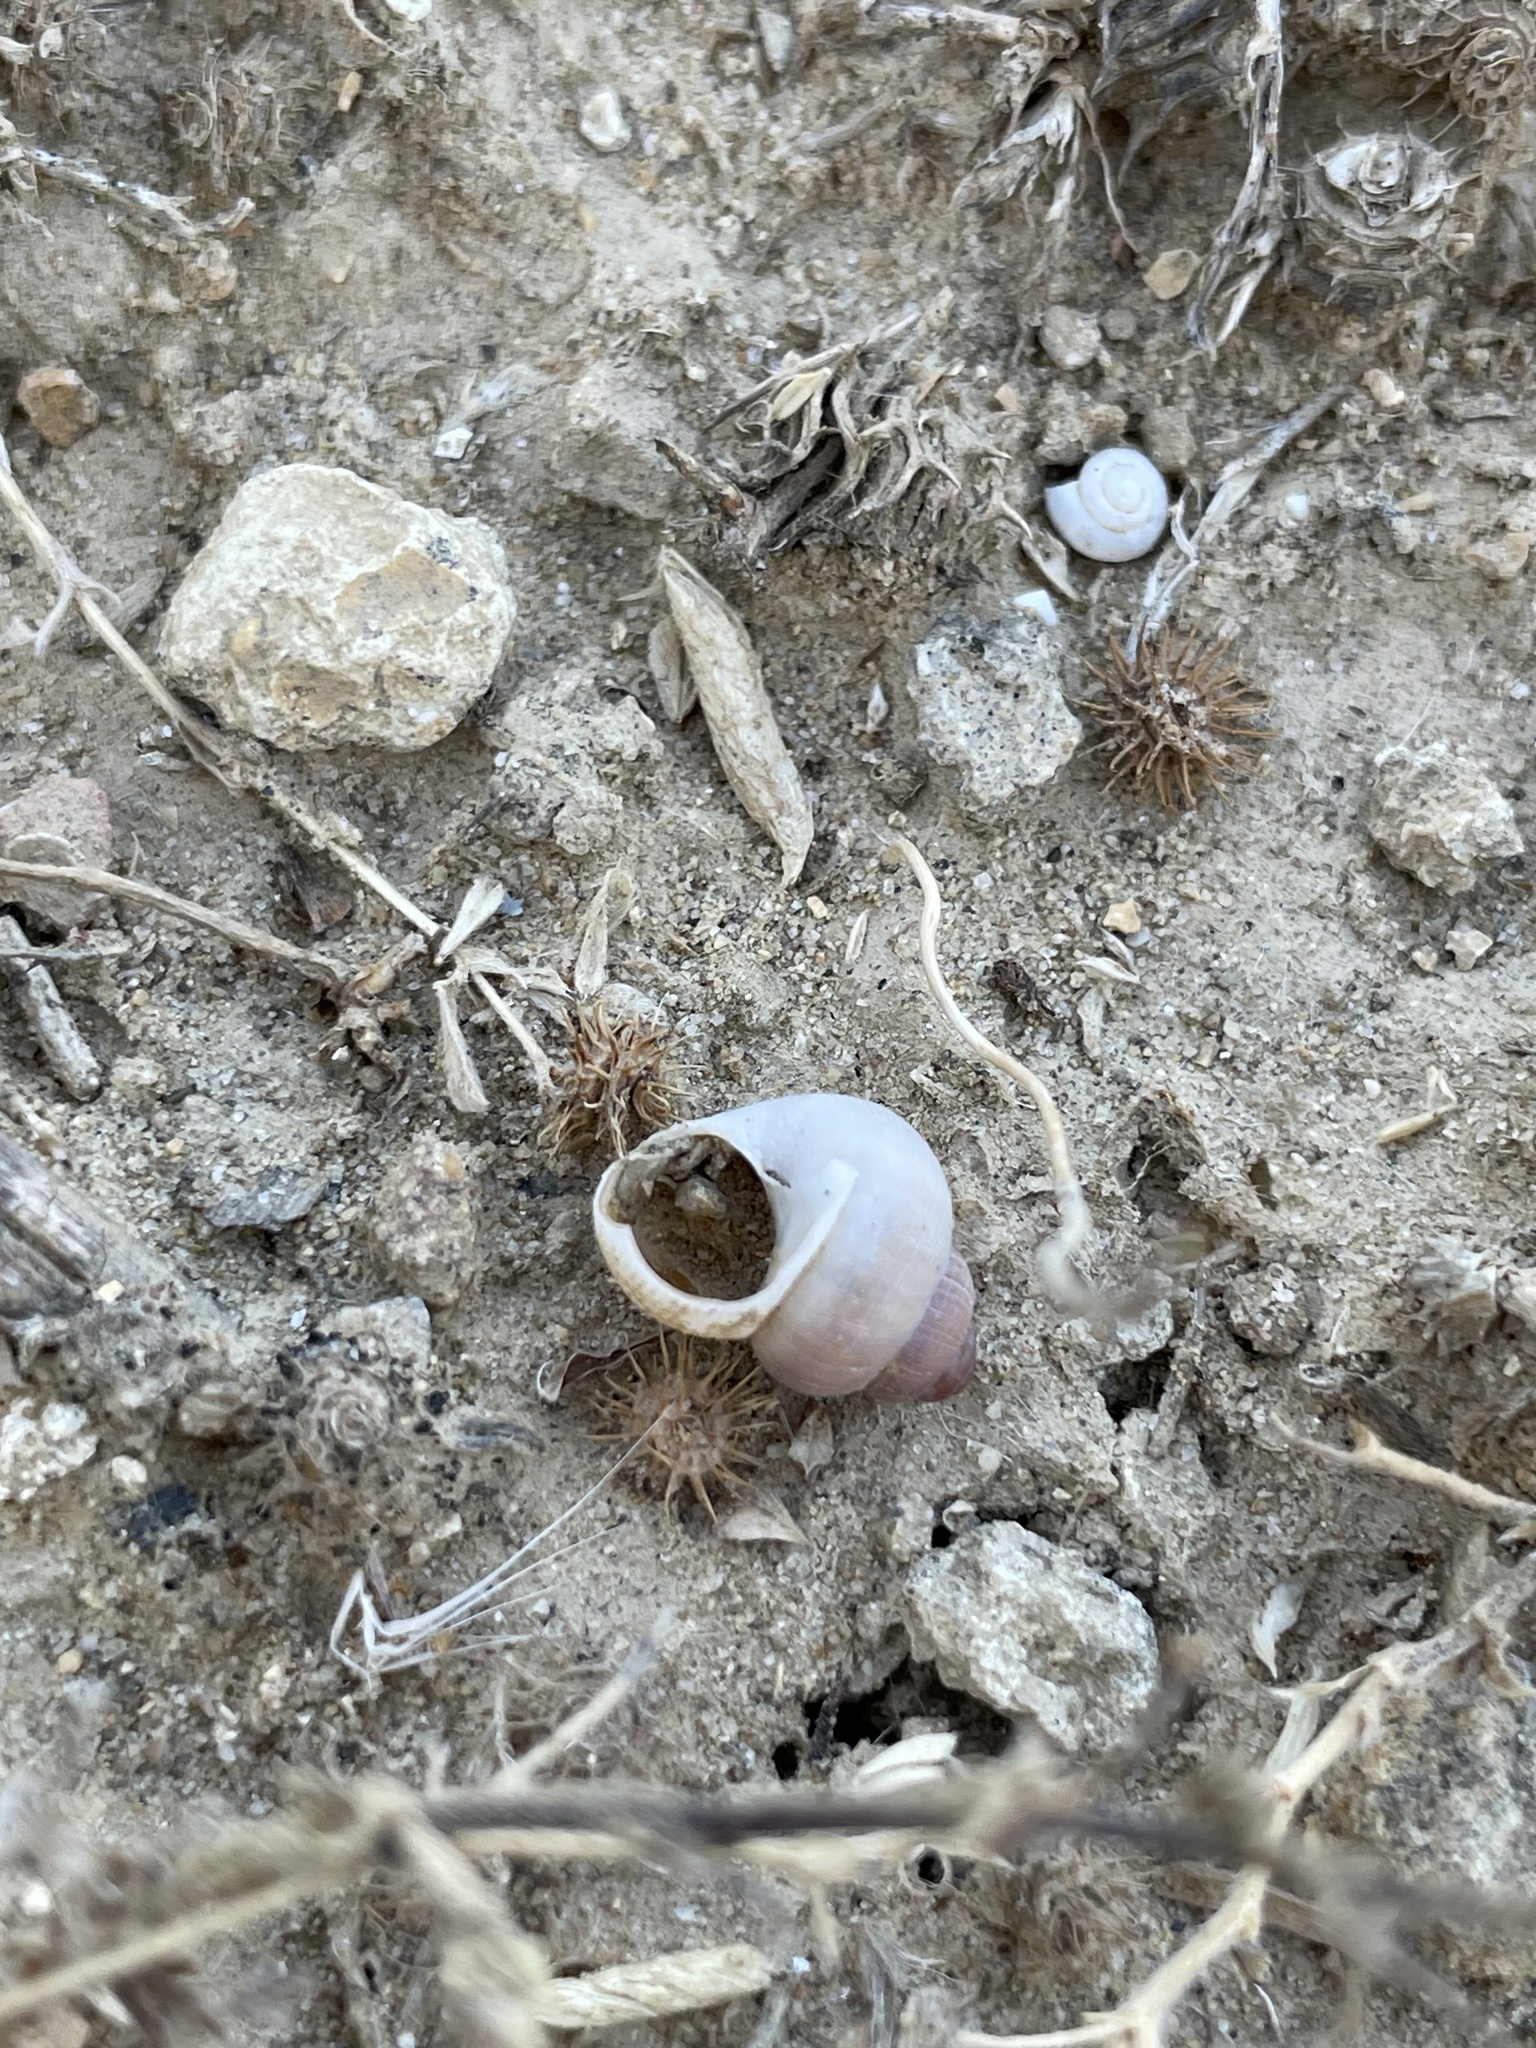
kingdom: Animalia
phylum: Mollusca
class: Gastropoda
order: Littorinimorpha
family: Pomatiidae
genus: Pomatias
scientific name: Pomatias elegans
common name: Red-mouthed snail
